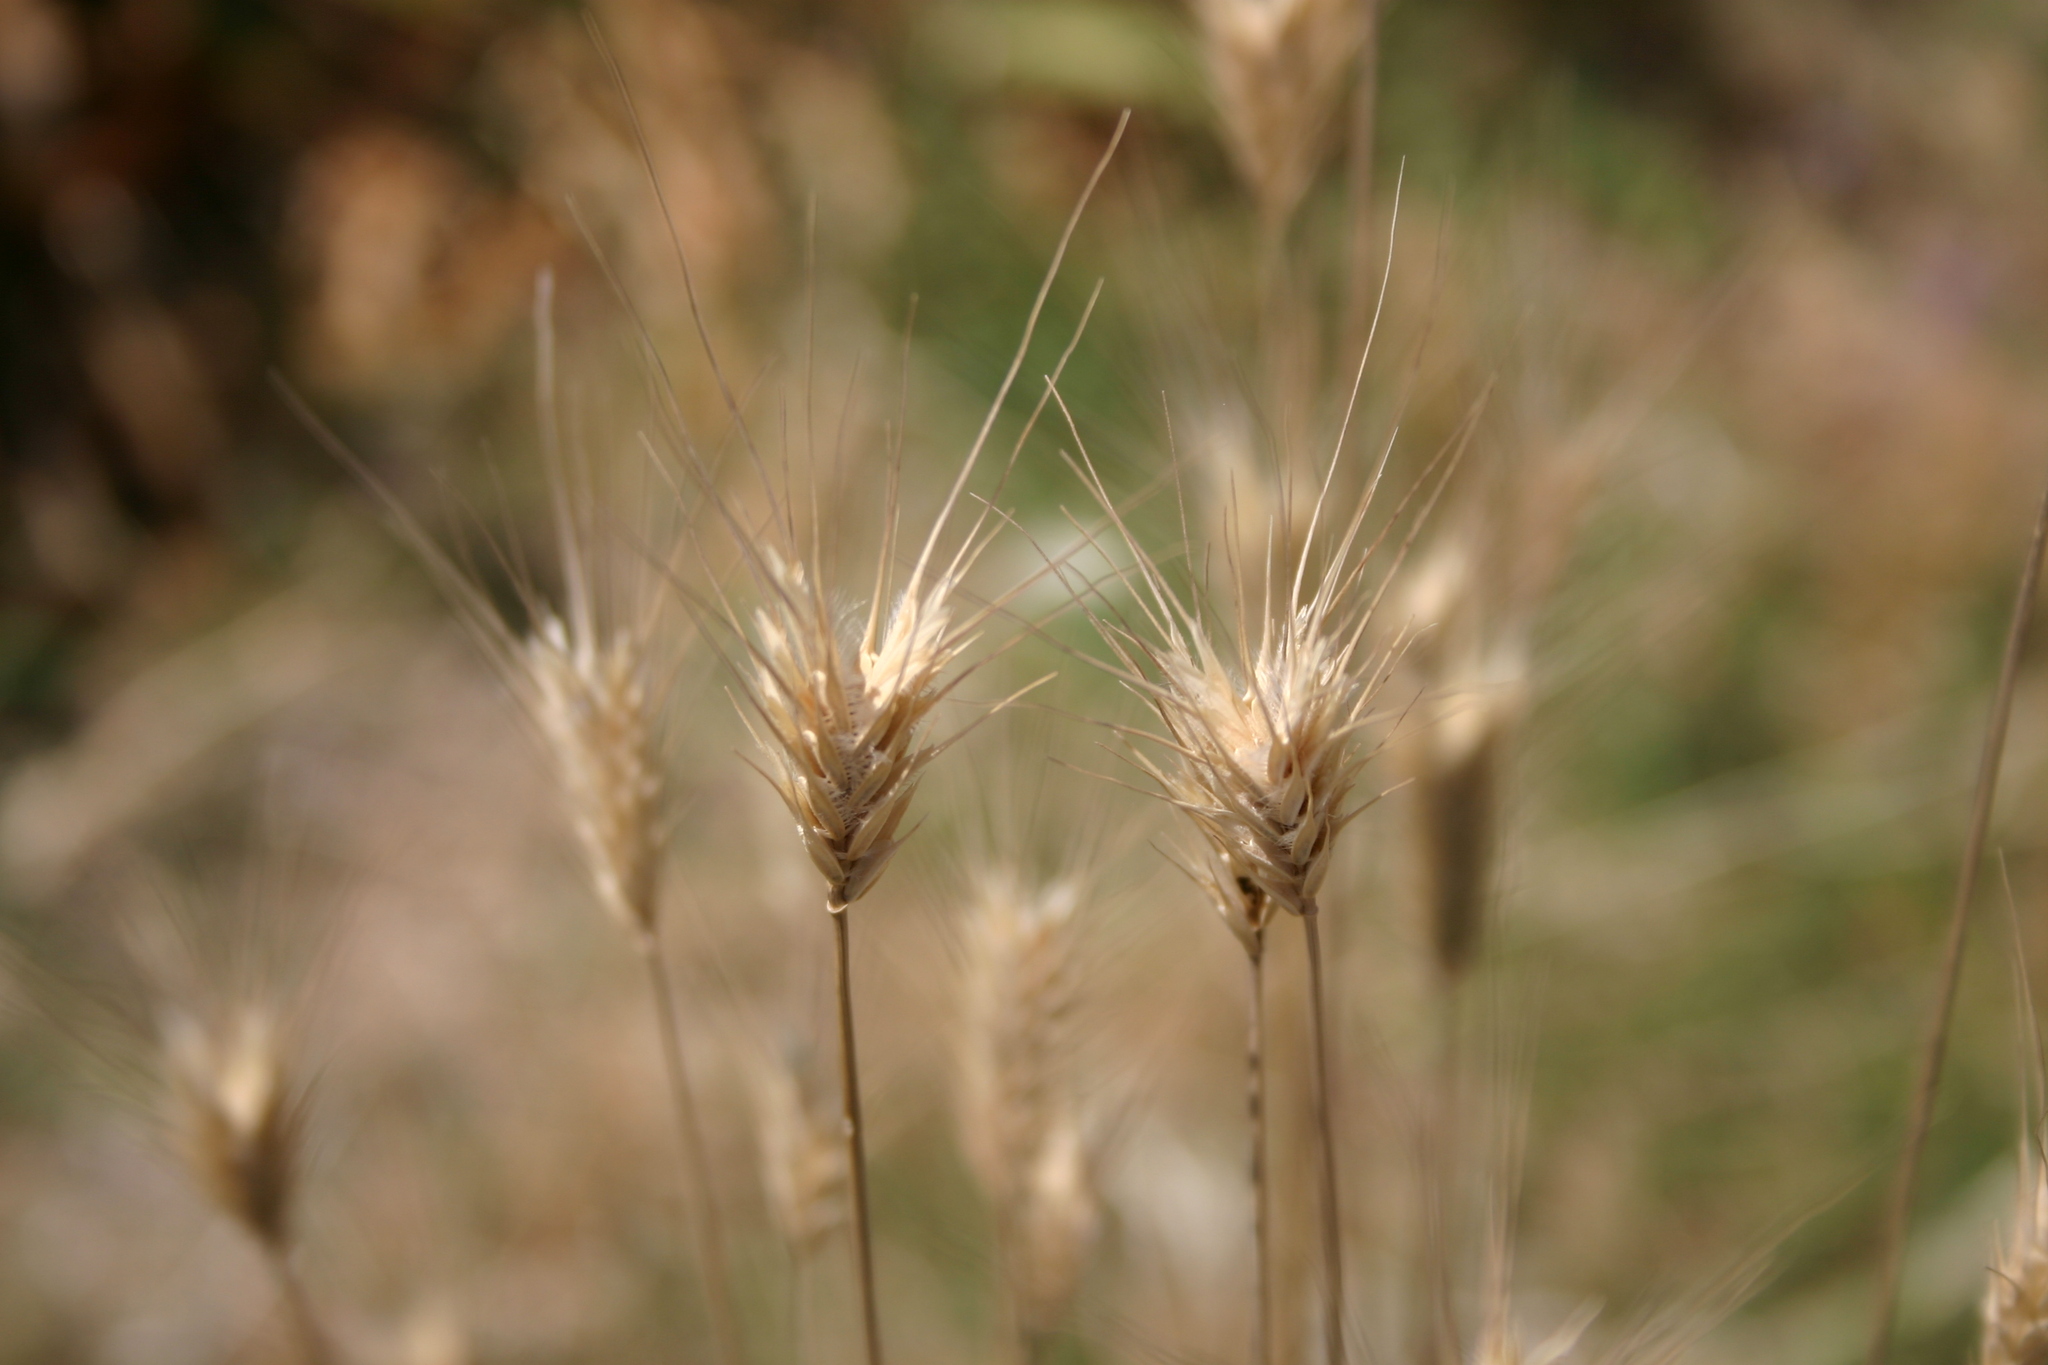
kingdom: Plantae
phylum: Tracheophyta
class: Liliopsida
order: Poales
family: Poaceae
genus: Dasypyrum
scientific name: Dasypyrum villosum
